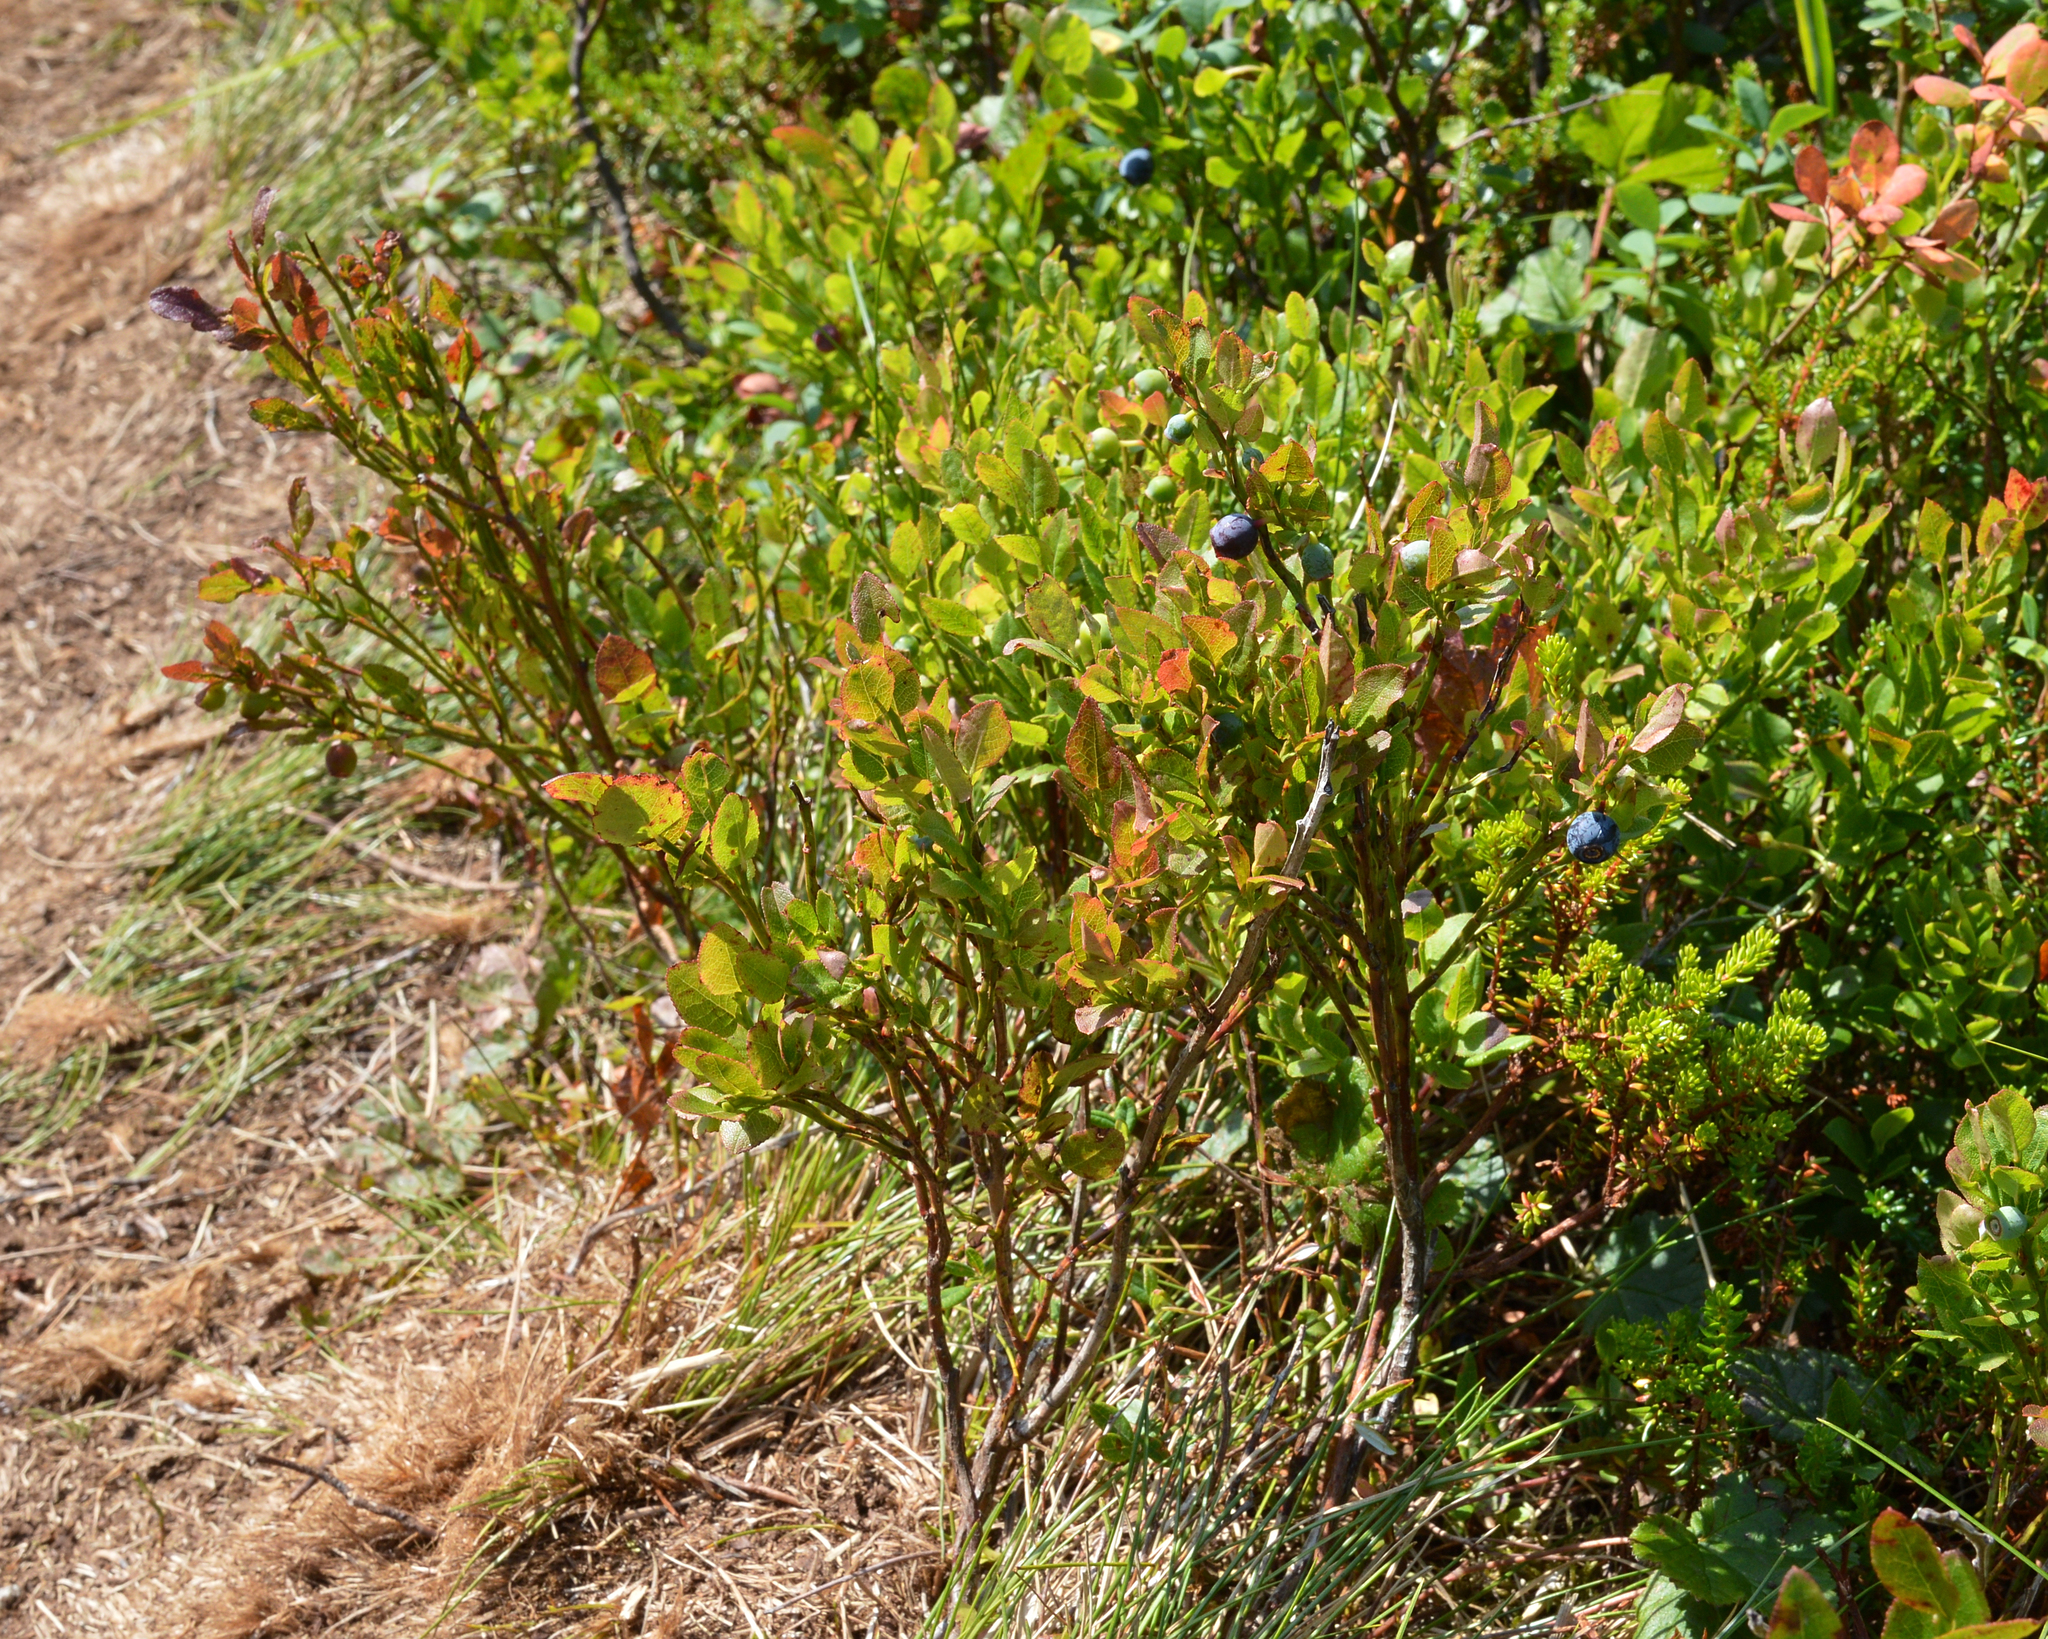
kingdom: Plantae
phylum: Tracheophyta
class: Magnoliopsida
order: Ericales
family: Ericaceae
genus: Vaccinium
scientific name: Vaccinium myrtillus
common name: Bilberry
